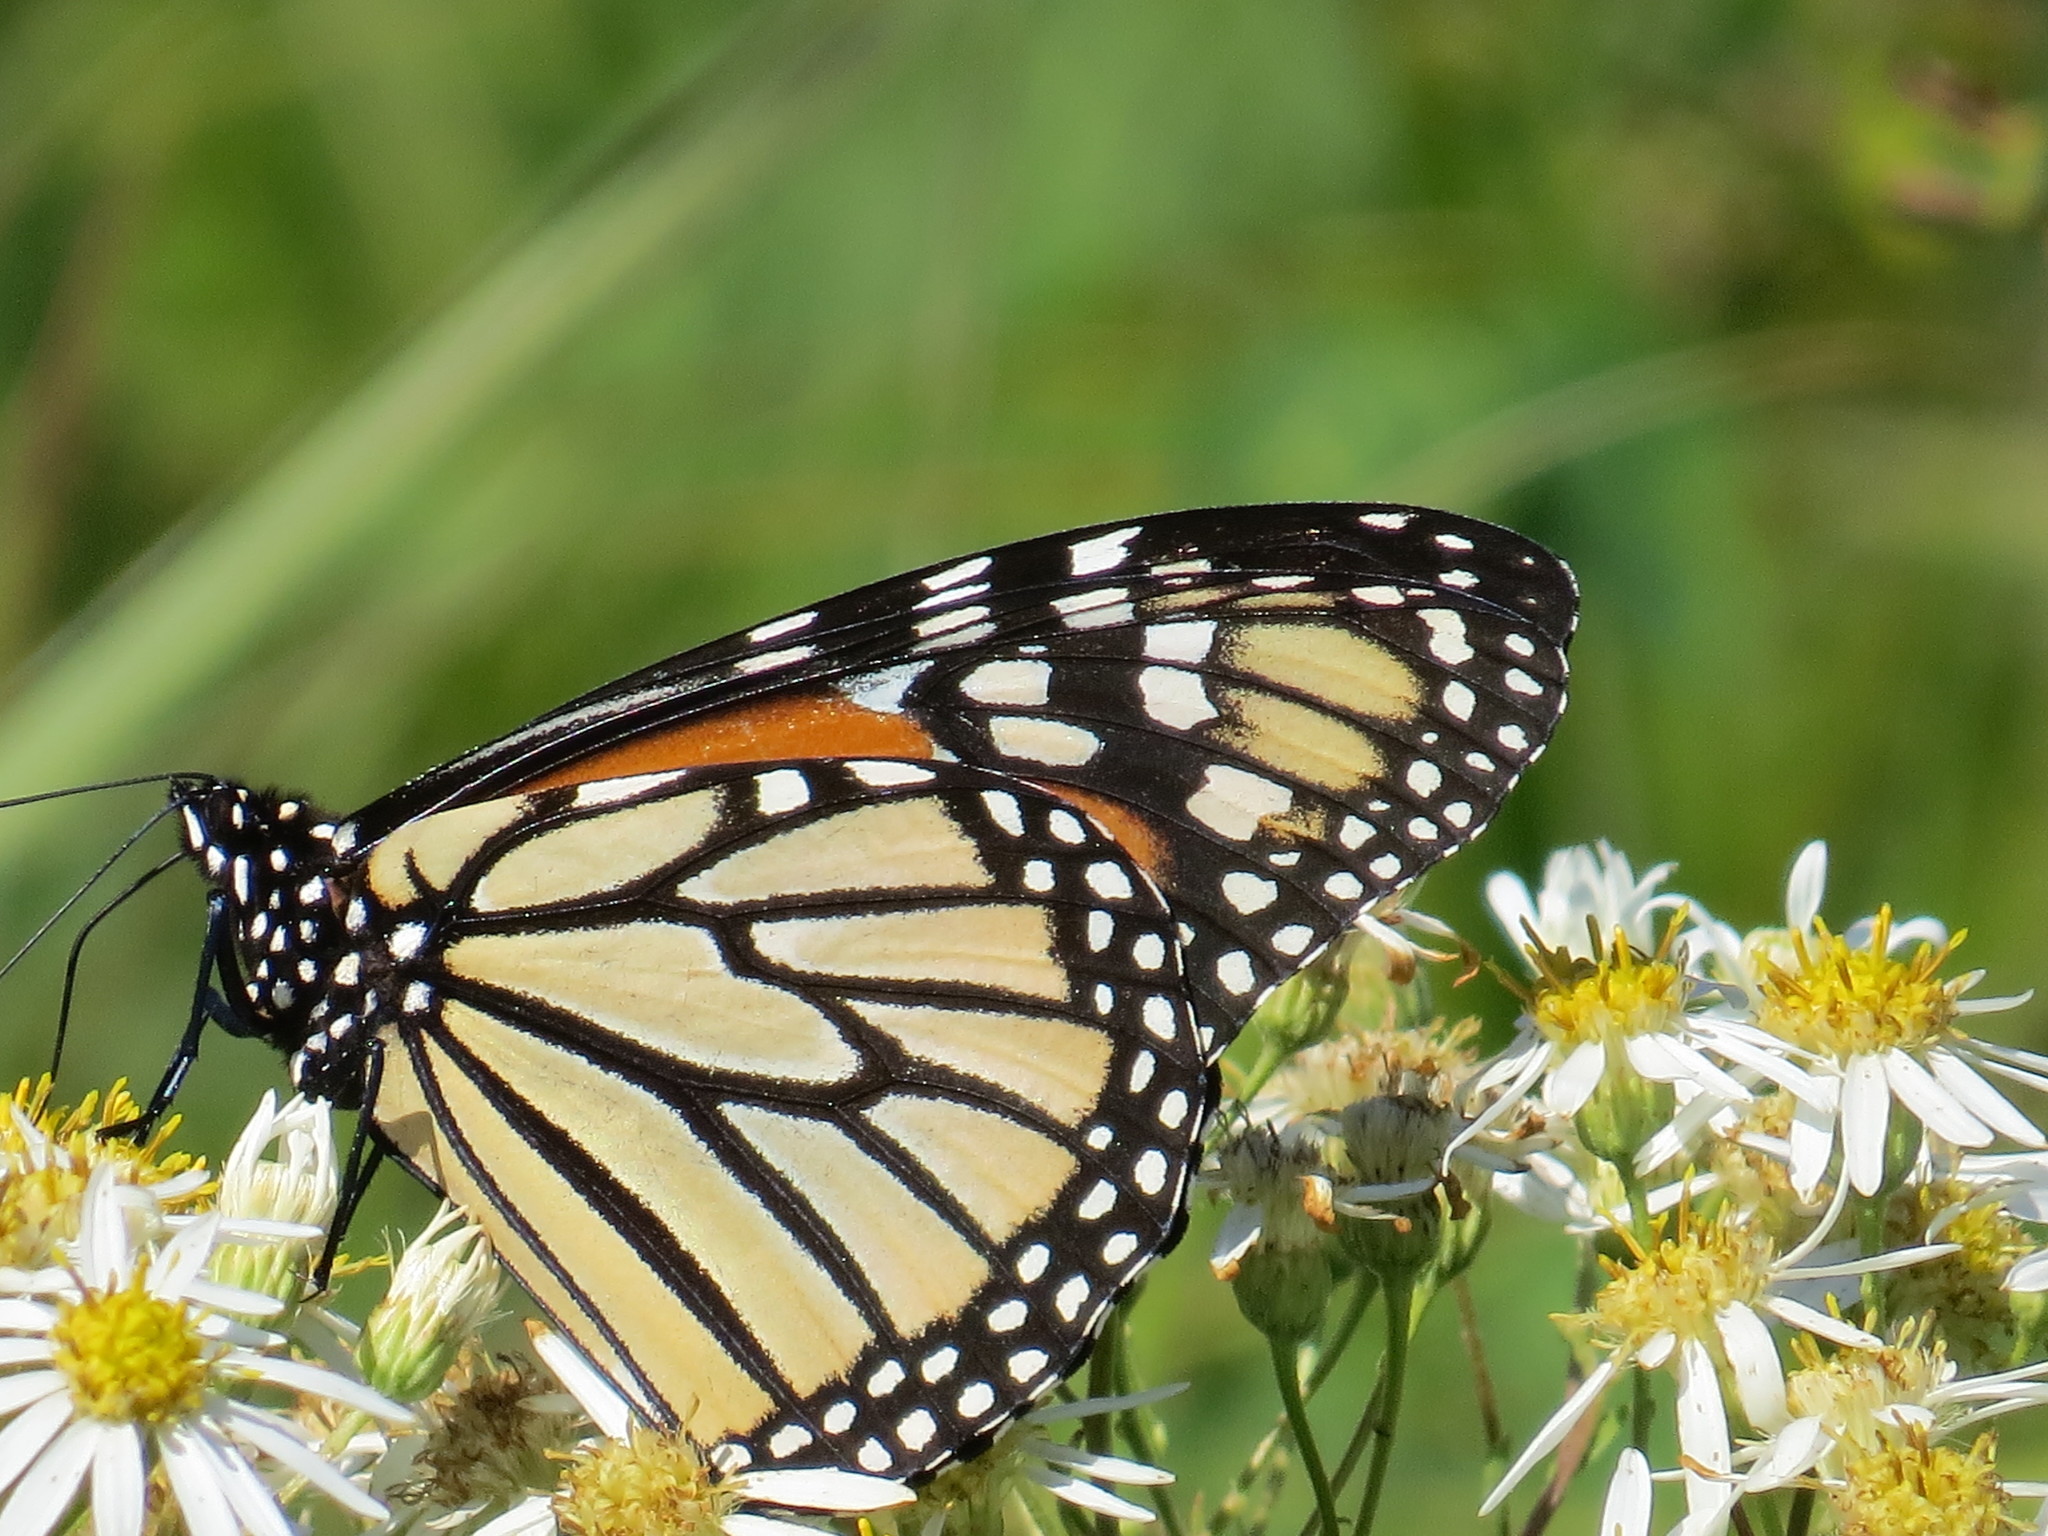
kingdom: Animalia
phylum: Arthropoda
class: Insecta
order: Lepidoptera
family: Nymphalidae
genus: Danaus
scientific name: Danaus plexippus
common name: Monarch
